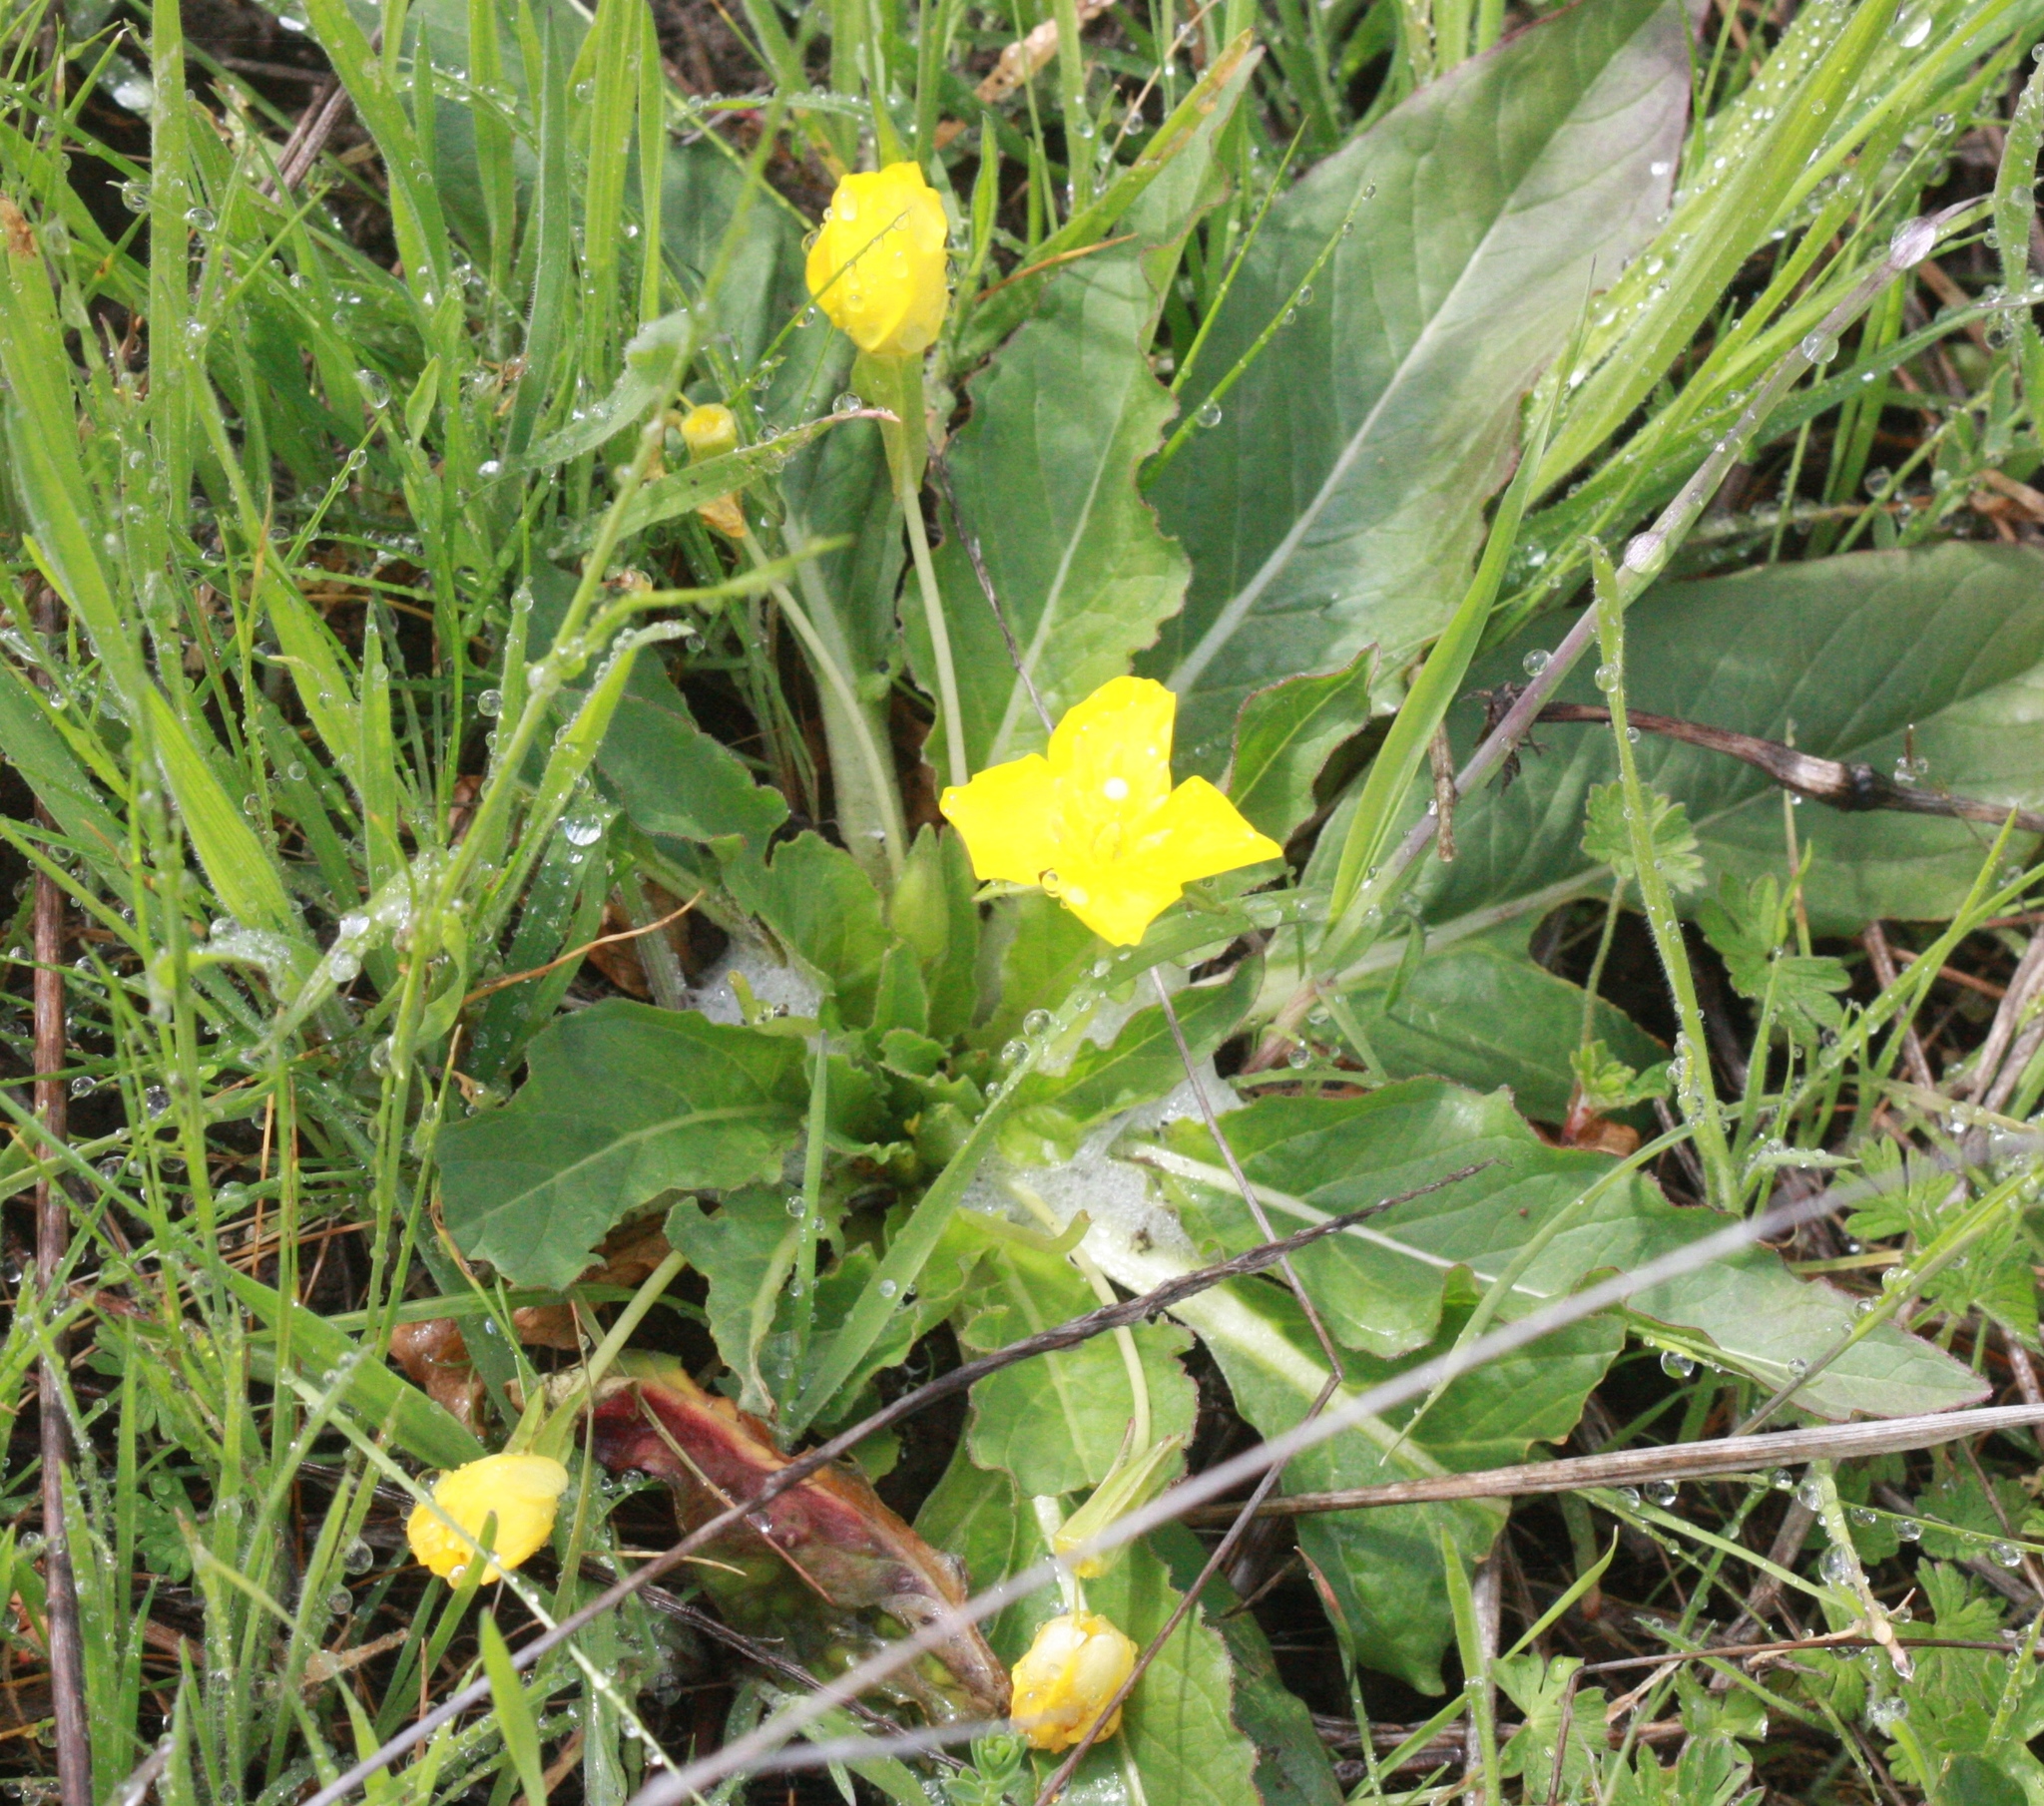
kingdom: Plantae
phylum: Tracheophyta
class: Magnoliopsida
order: Myrtales
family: Onagraceae
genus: Taraxia
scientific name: Taraxia ovata
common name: Goldeneggs
